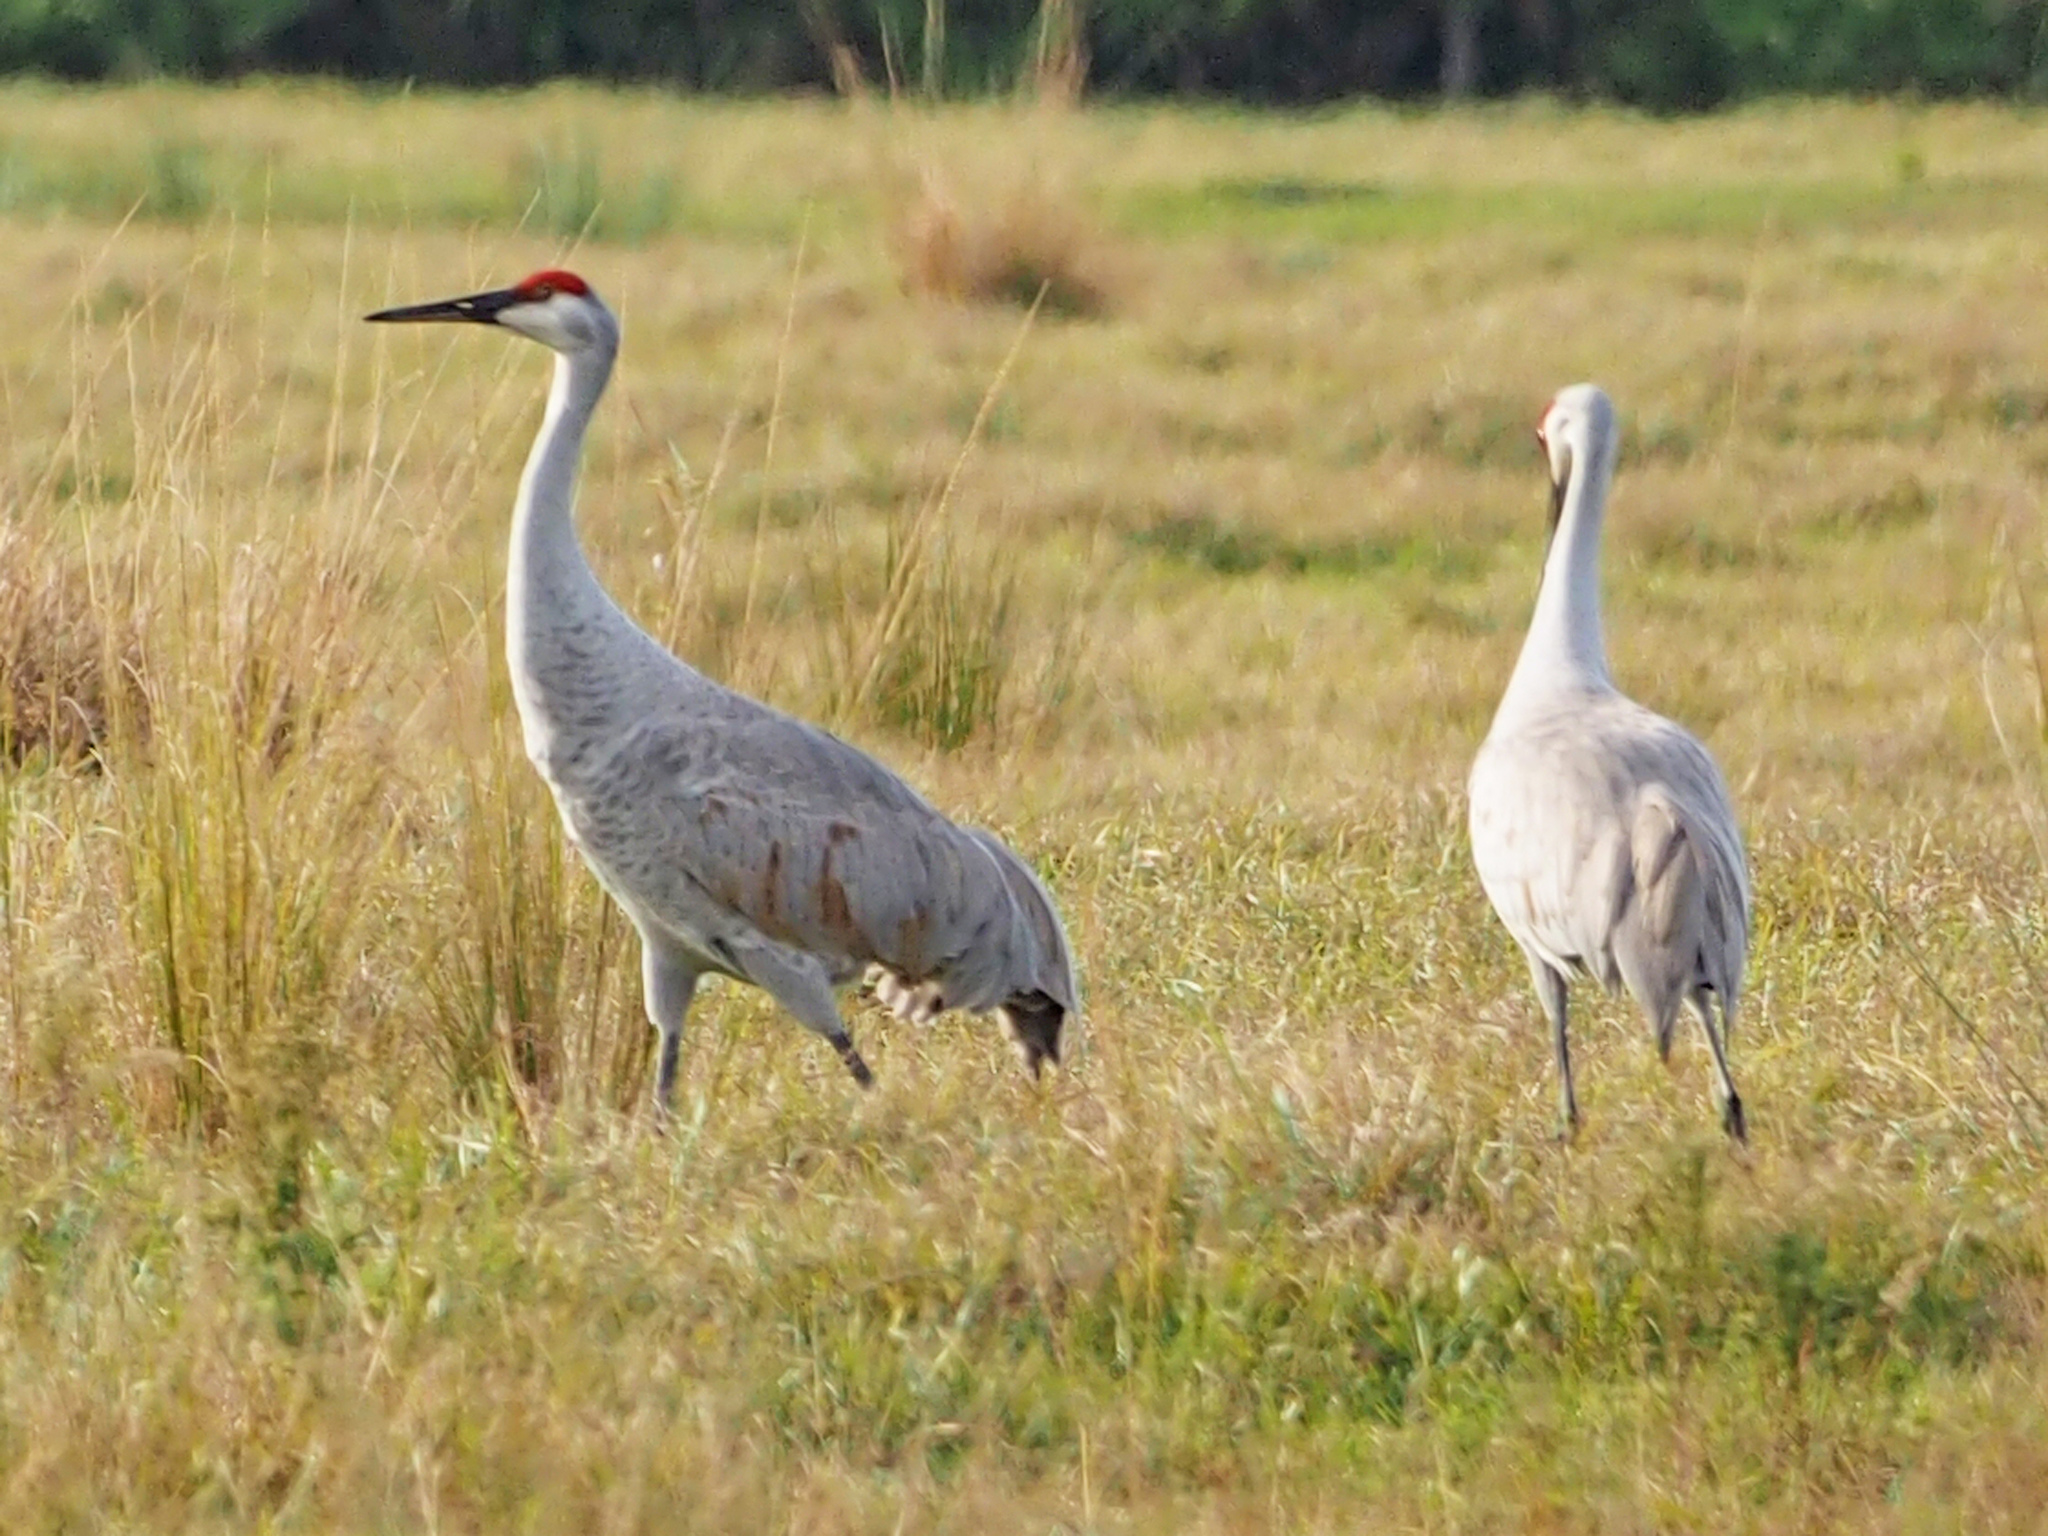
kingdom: Animalia
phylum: Chordata
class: Aves
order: Gruiformes
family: Gruidae
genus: Grus
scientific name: Grus canadensis
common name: Sandhill crane
